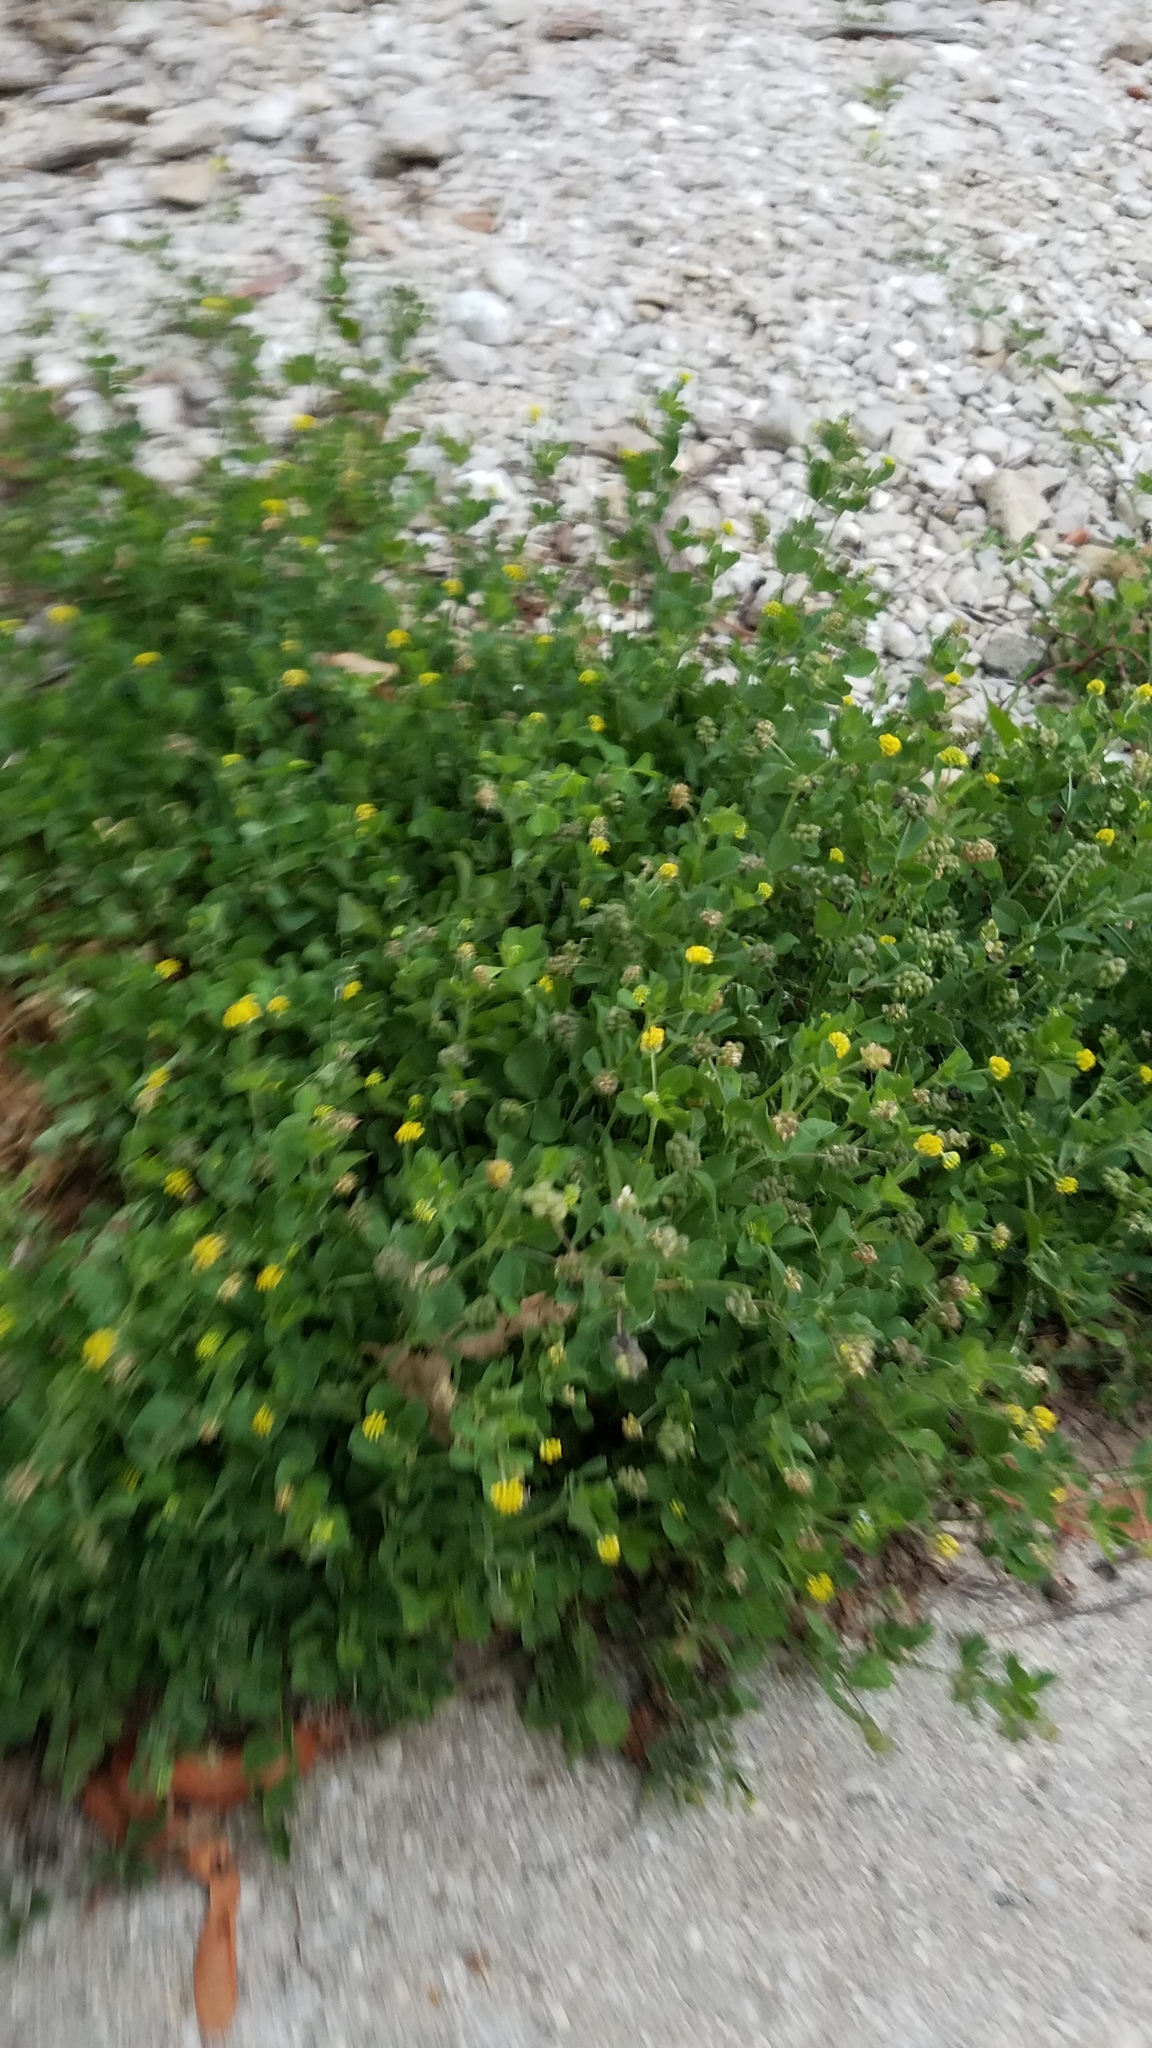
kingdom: Plantae
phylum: Tracheophyta
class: Magnoliopsida
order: Fabales
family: Fabaceae
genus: Medicago
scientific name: Medicago lupulina
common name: Black medick
